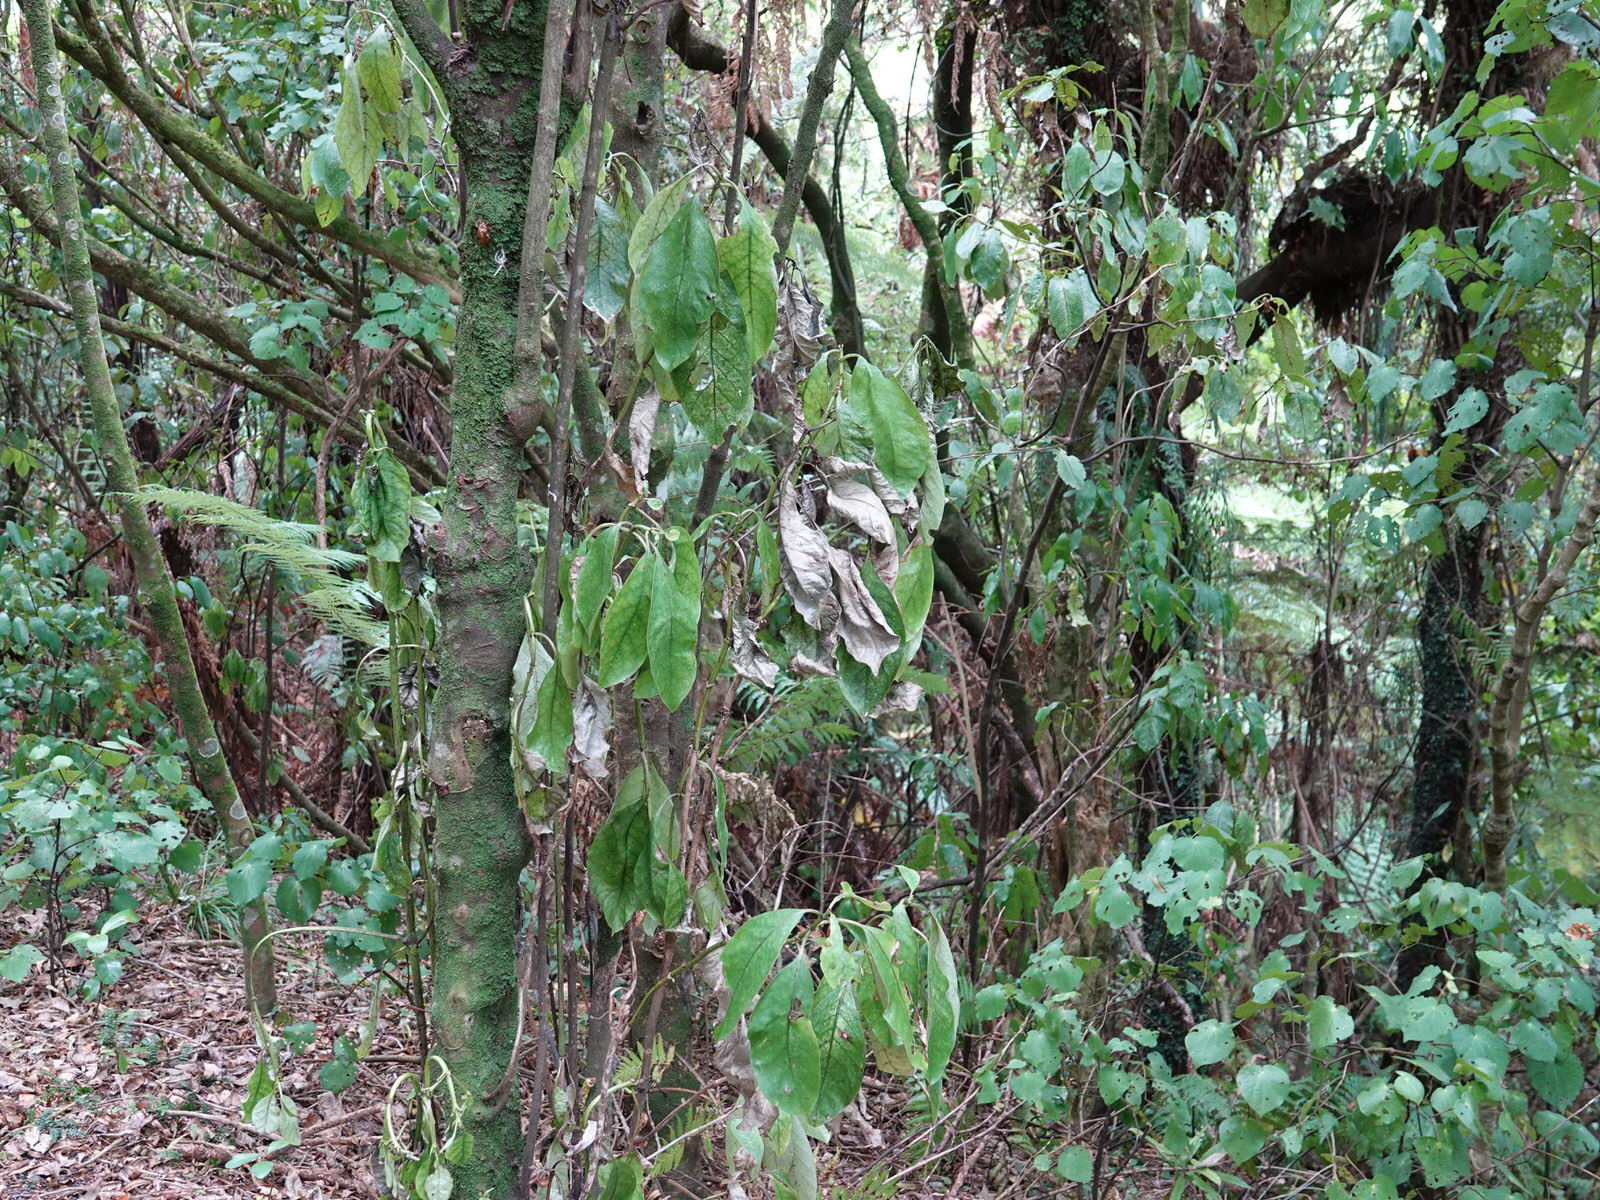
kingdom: Plantae
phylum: Tracheophyta
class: Magnoliopsida
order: Gentianales
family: Rubiaceae
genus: Coprosma
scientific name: Coprosma autumnalis
